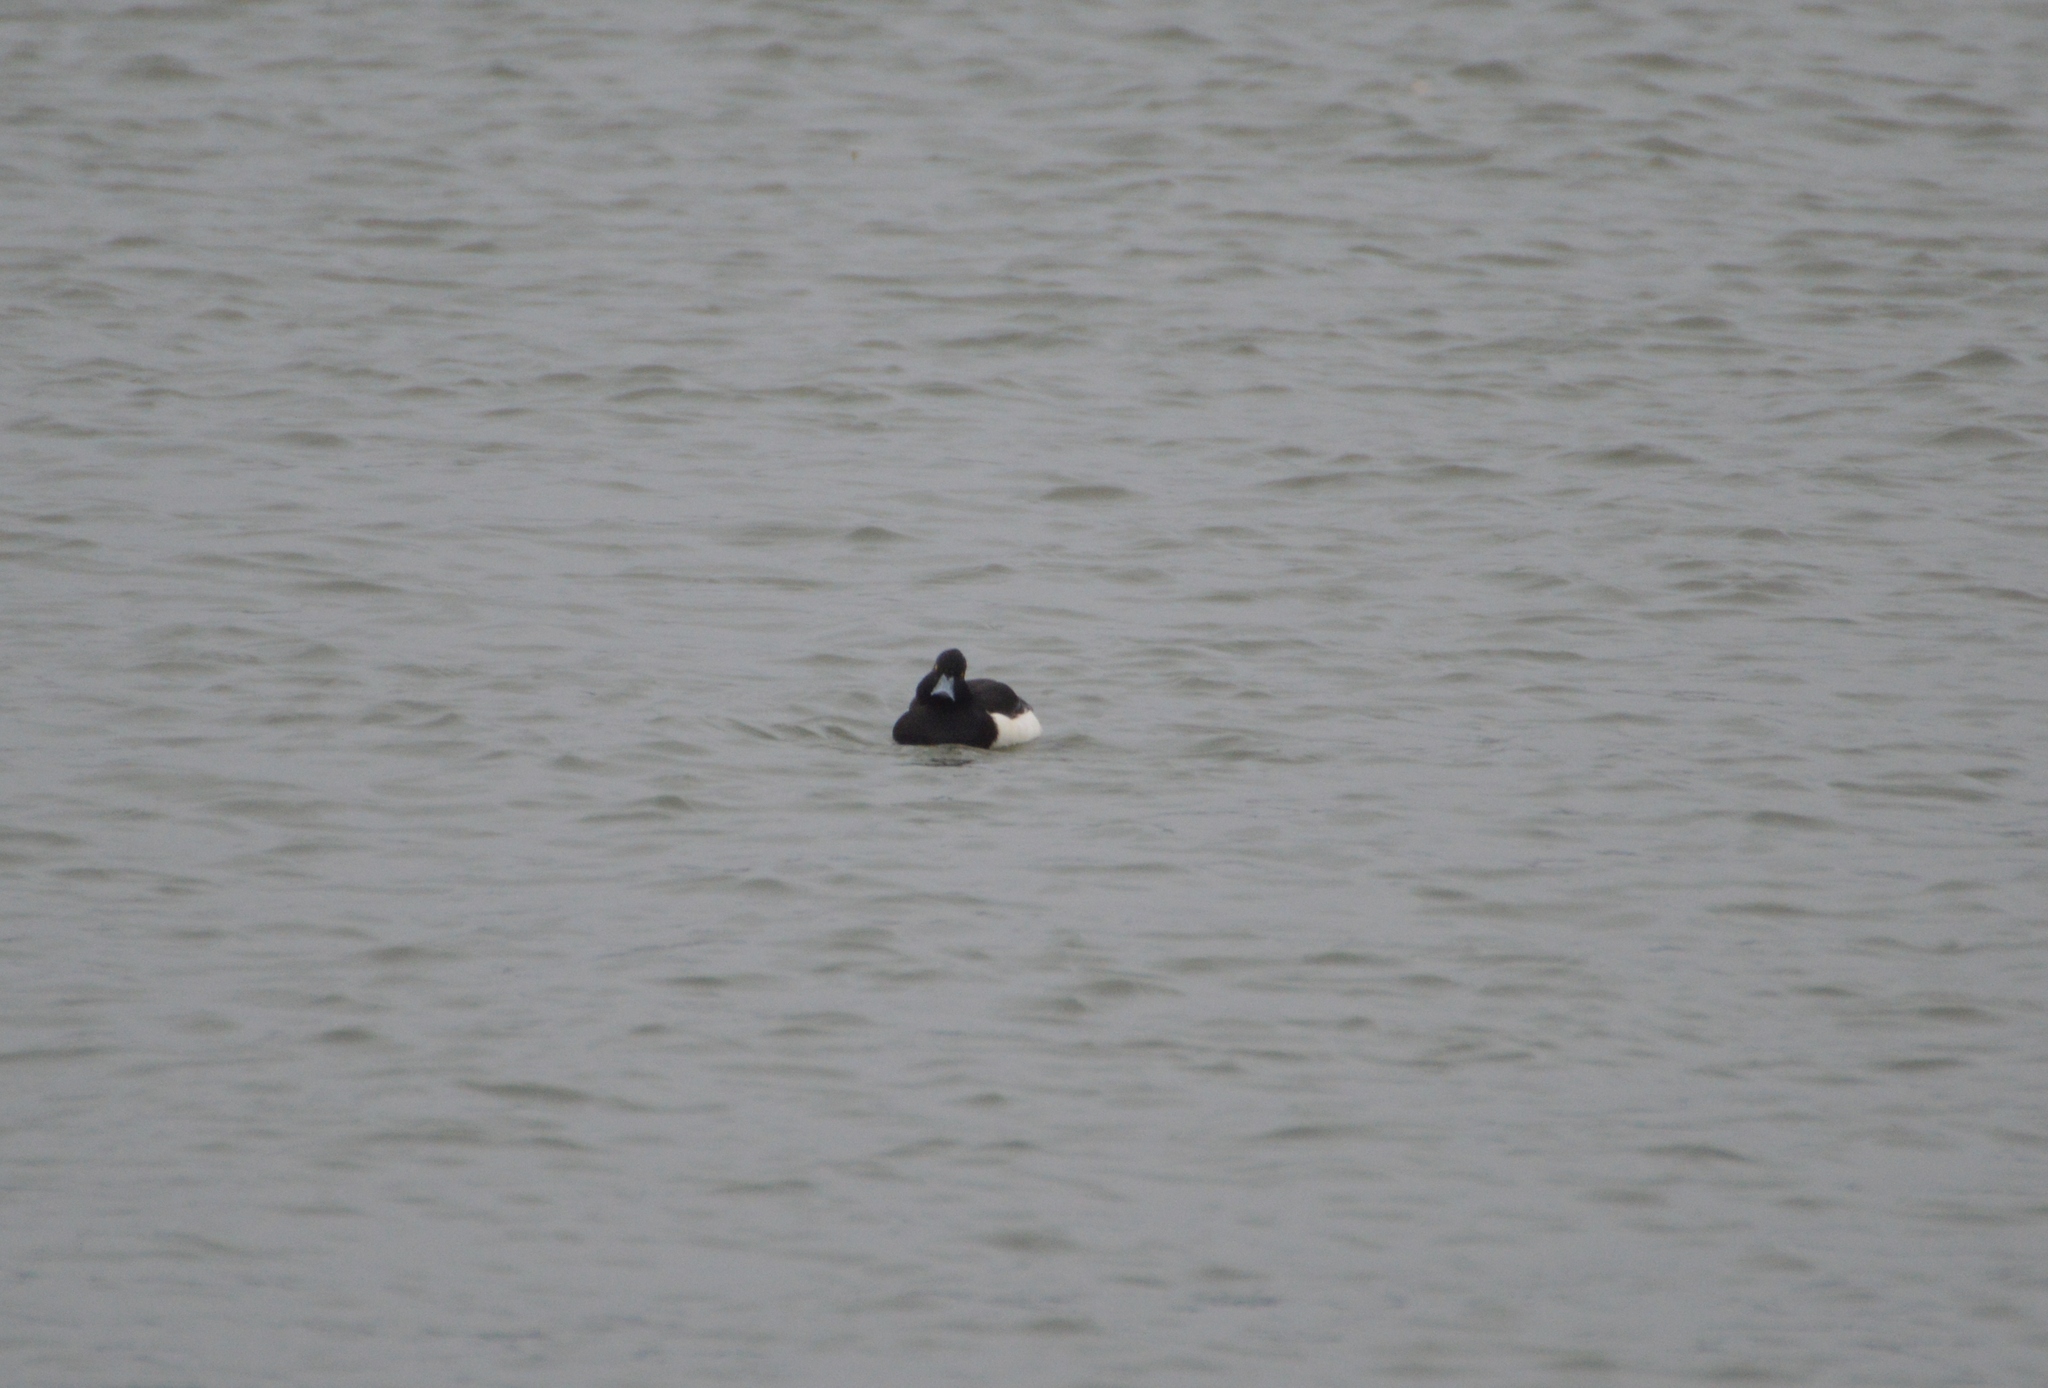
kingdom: Animalia
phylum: Chordata
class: Aves
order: Anseriformes
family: Anatidae
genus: Aythya
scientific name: Aythya fuligula
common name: Tufted duck
